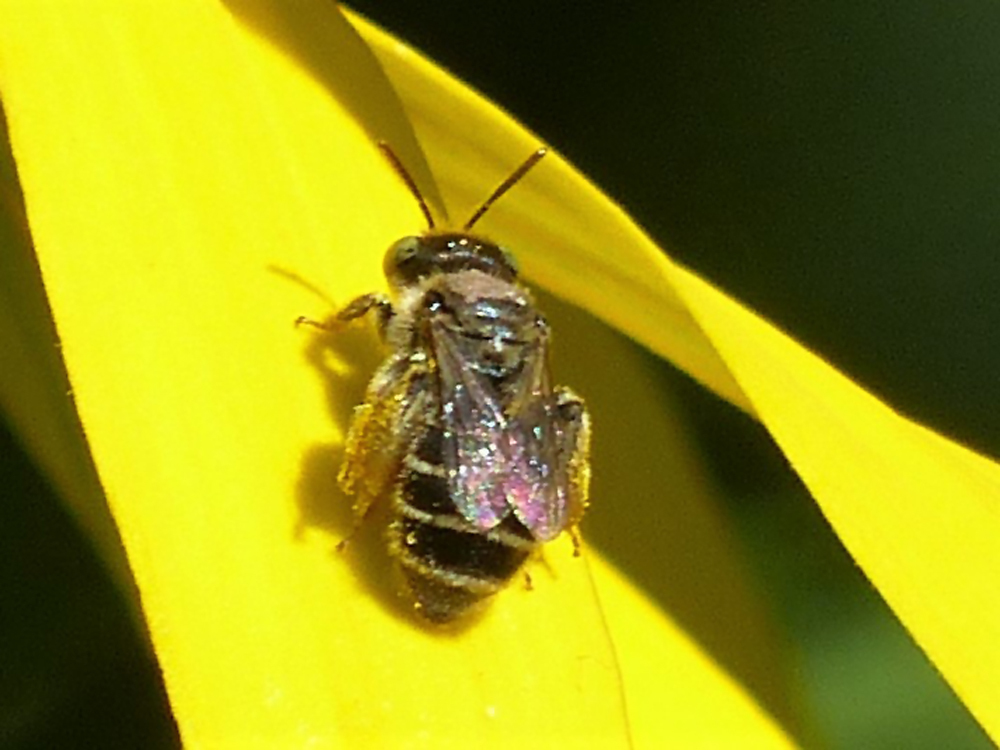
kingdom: Animalia
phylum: Arthropoda
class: Insecta
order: Hymenoptera
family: Andrenidae
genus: Calliopsis
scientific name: Calliopsis andreniformis
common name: Eastern calliopsis bee
